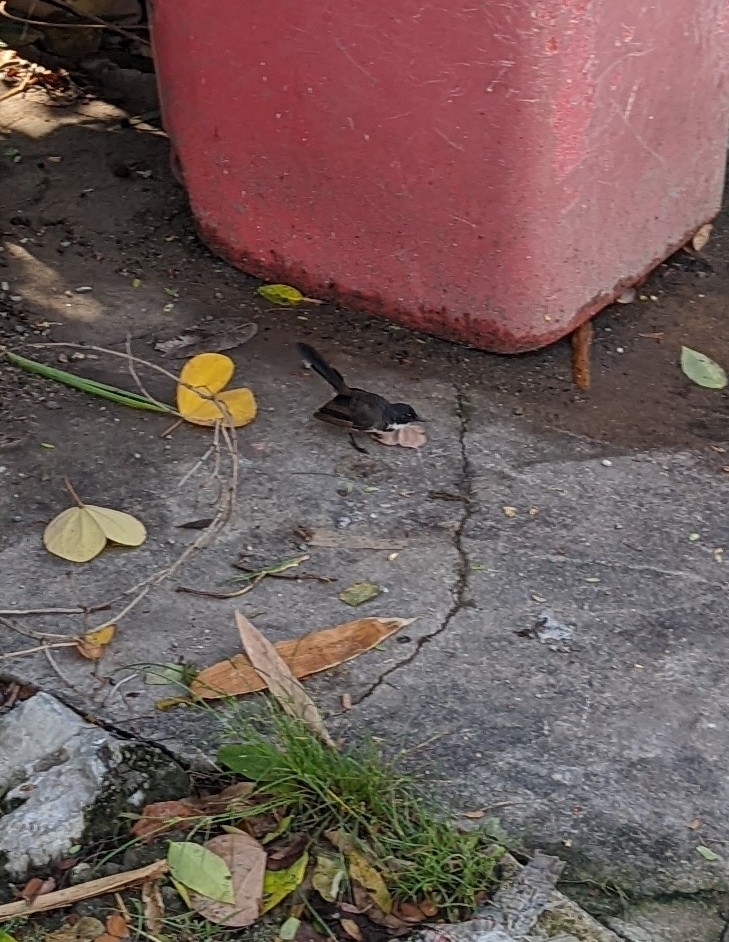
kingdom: Animalia
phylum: Chordata
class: Aves
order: Passeriformes
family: Rhipiduridae
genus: Rhipidura
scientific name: Rhipidura javanica
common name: Pied fantail
